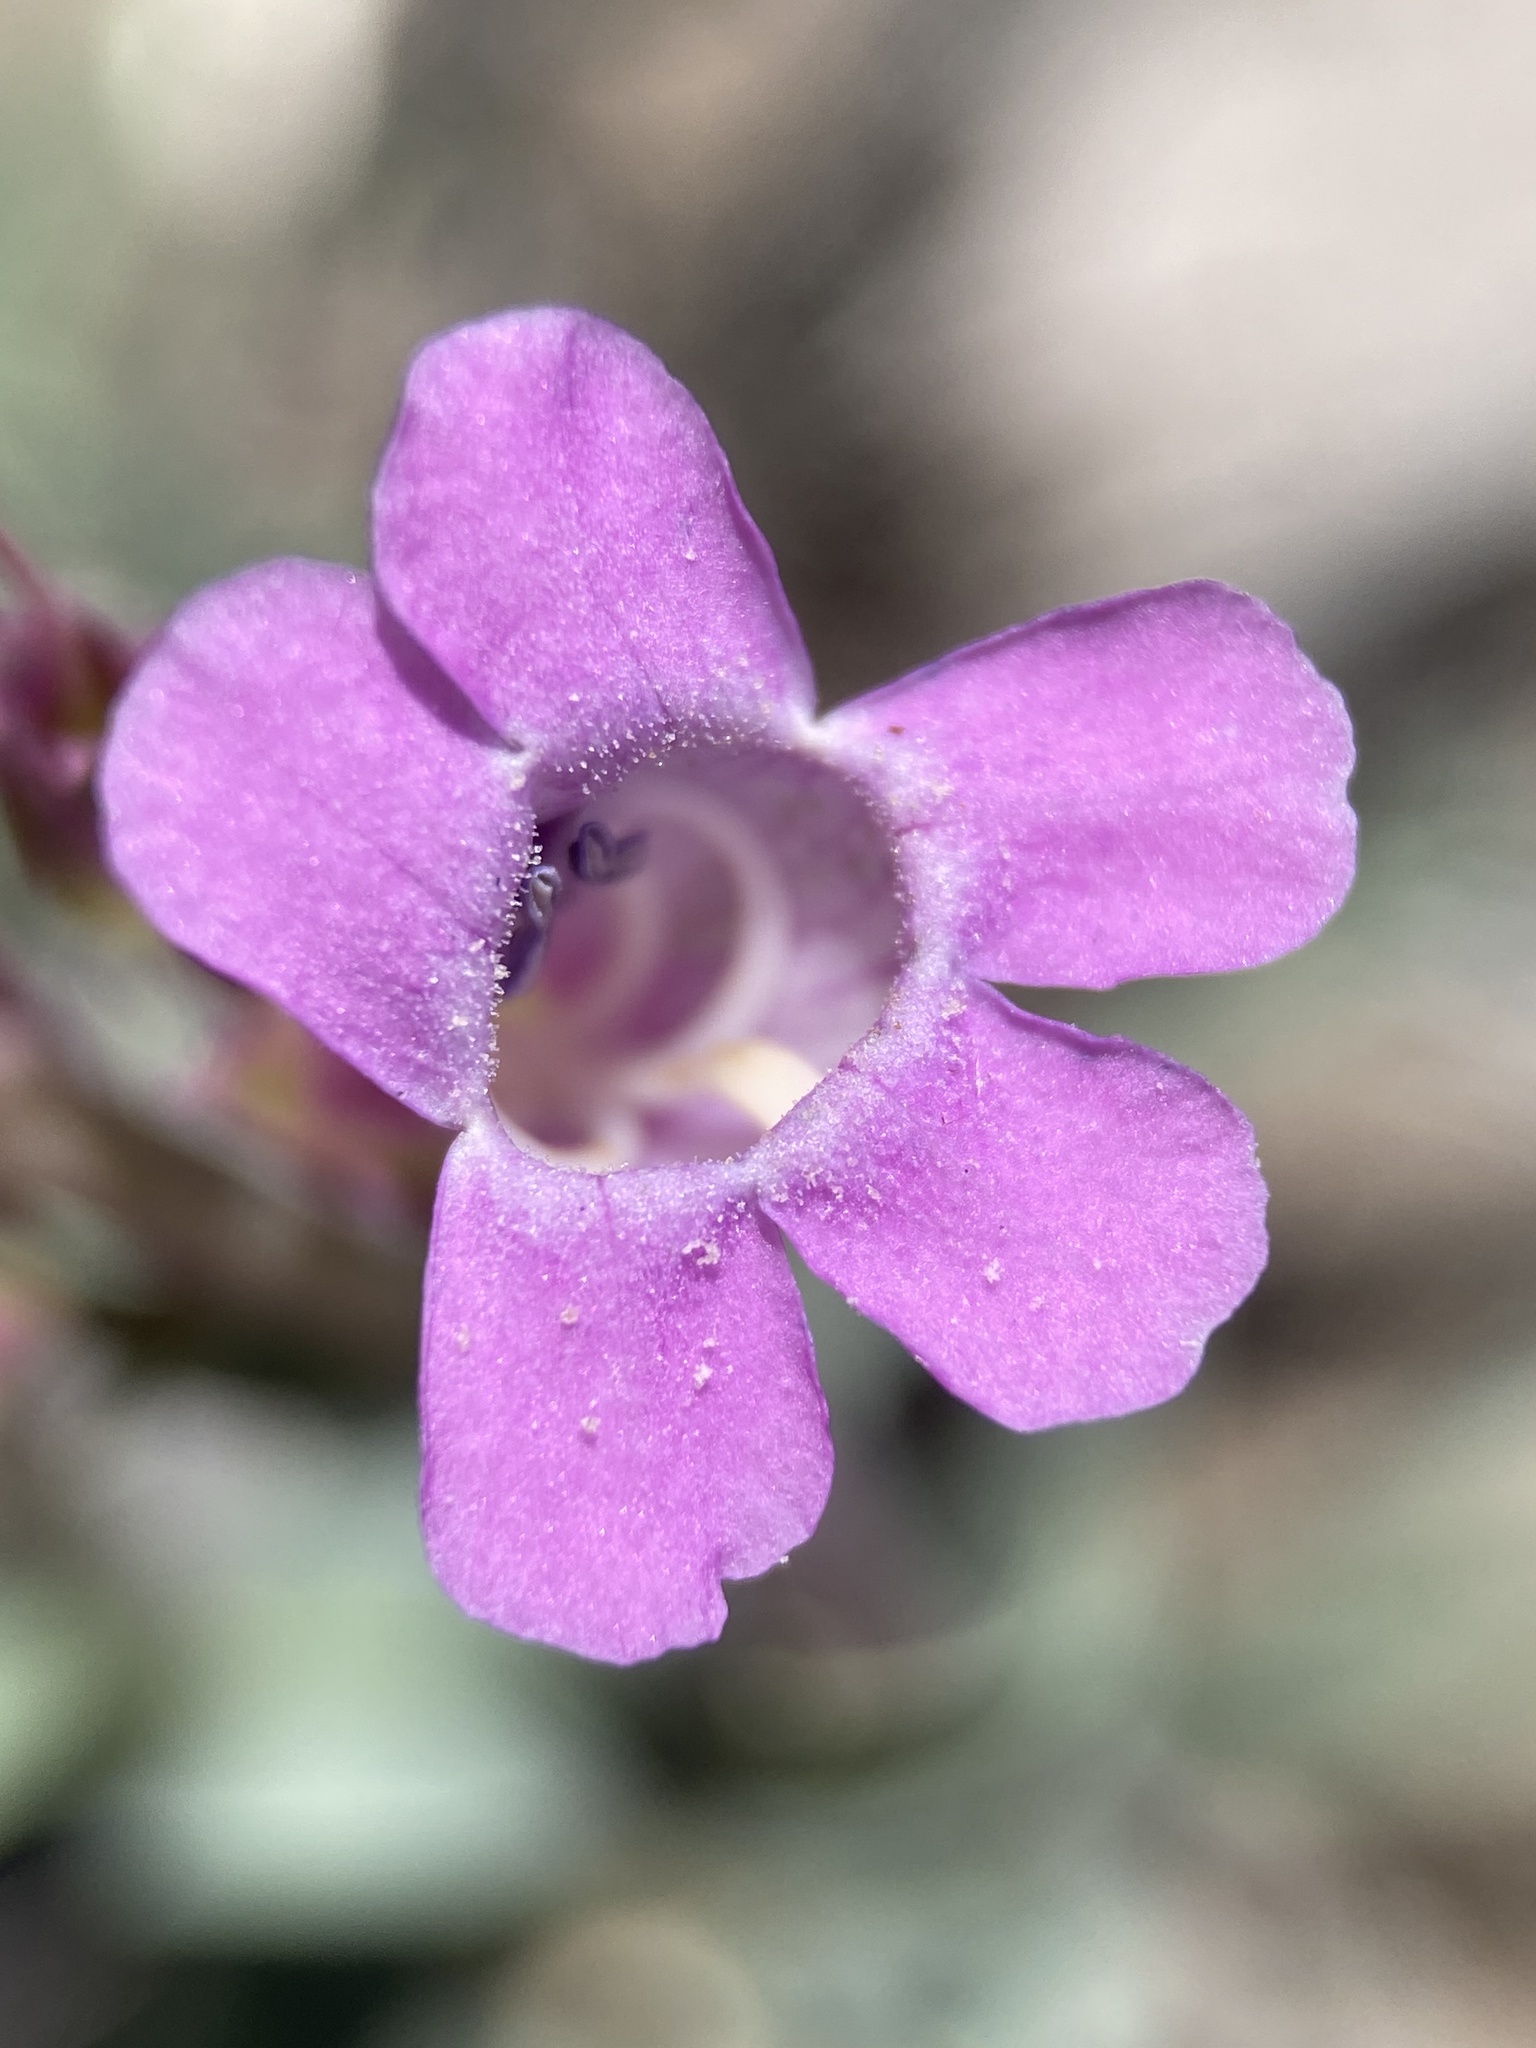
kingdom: Plantae
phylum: Tracheophyta
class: Magnoliopsida
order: Lamiales
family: Plantaginaceae
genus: Penstemon
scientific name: Penstemon confusus
